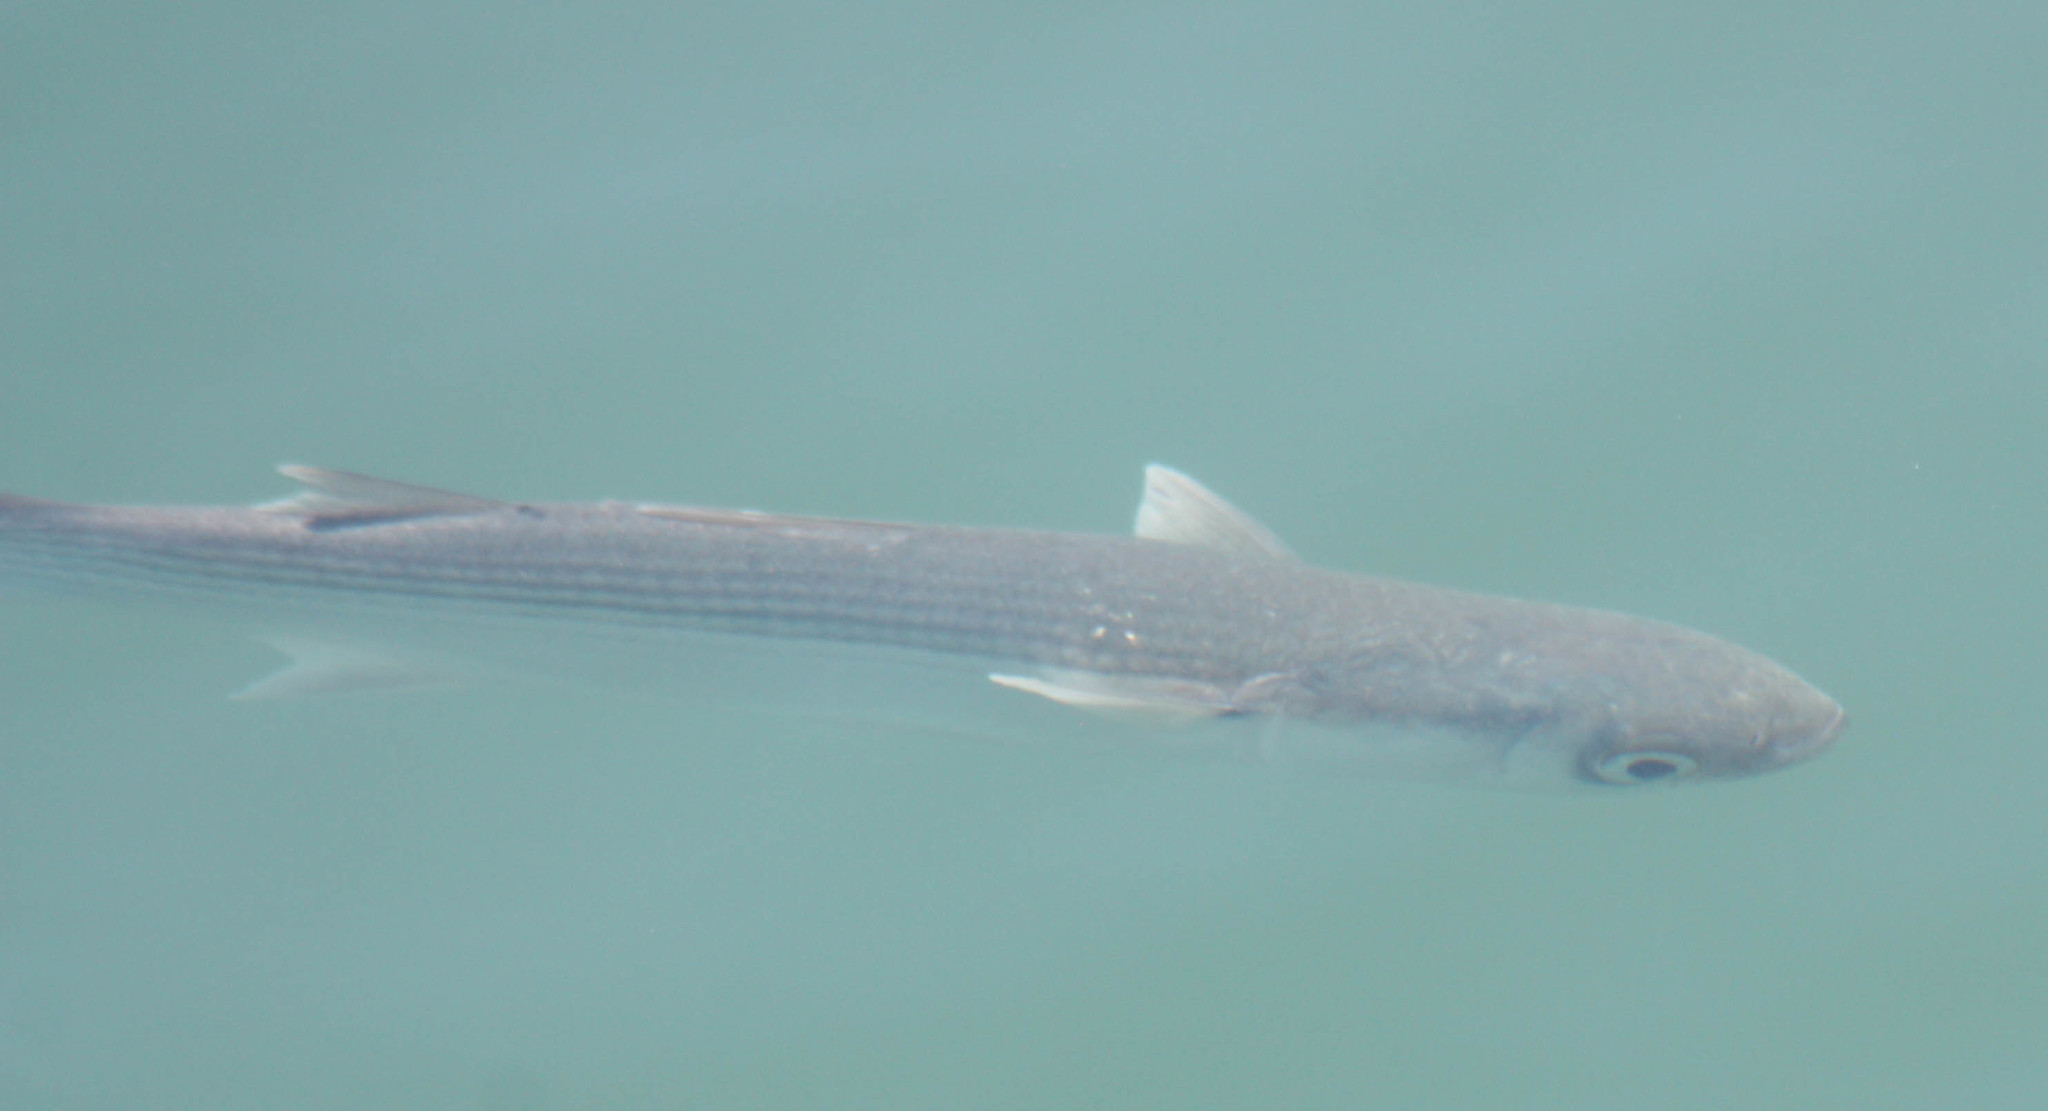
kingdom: Animalia
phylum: Chordata
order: Mugiliformes
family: Mugilidae
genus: Mugil
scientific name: Mugil cephalus
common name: Grey mullet
